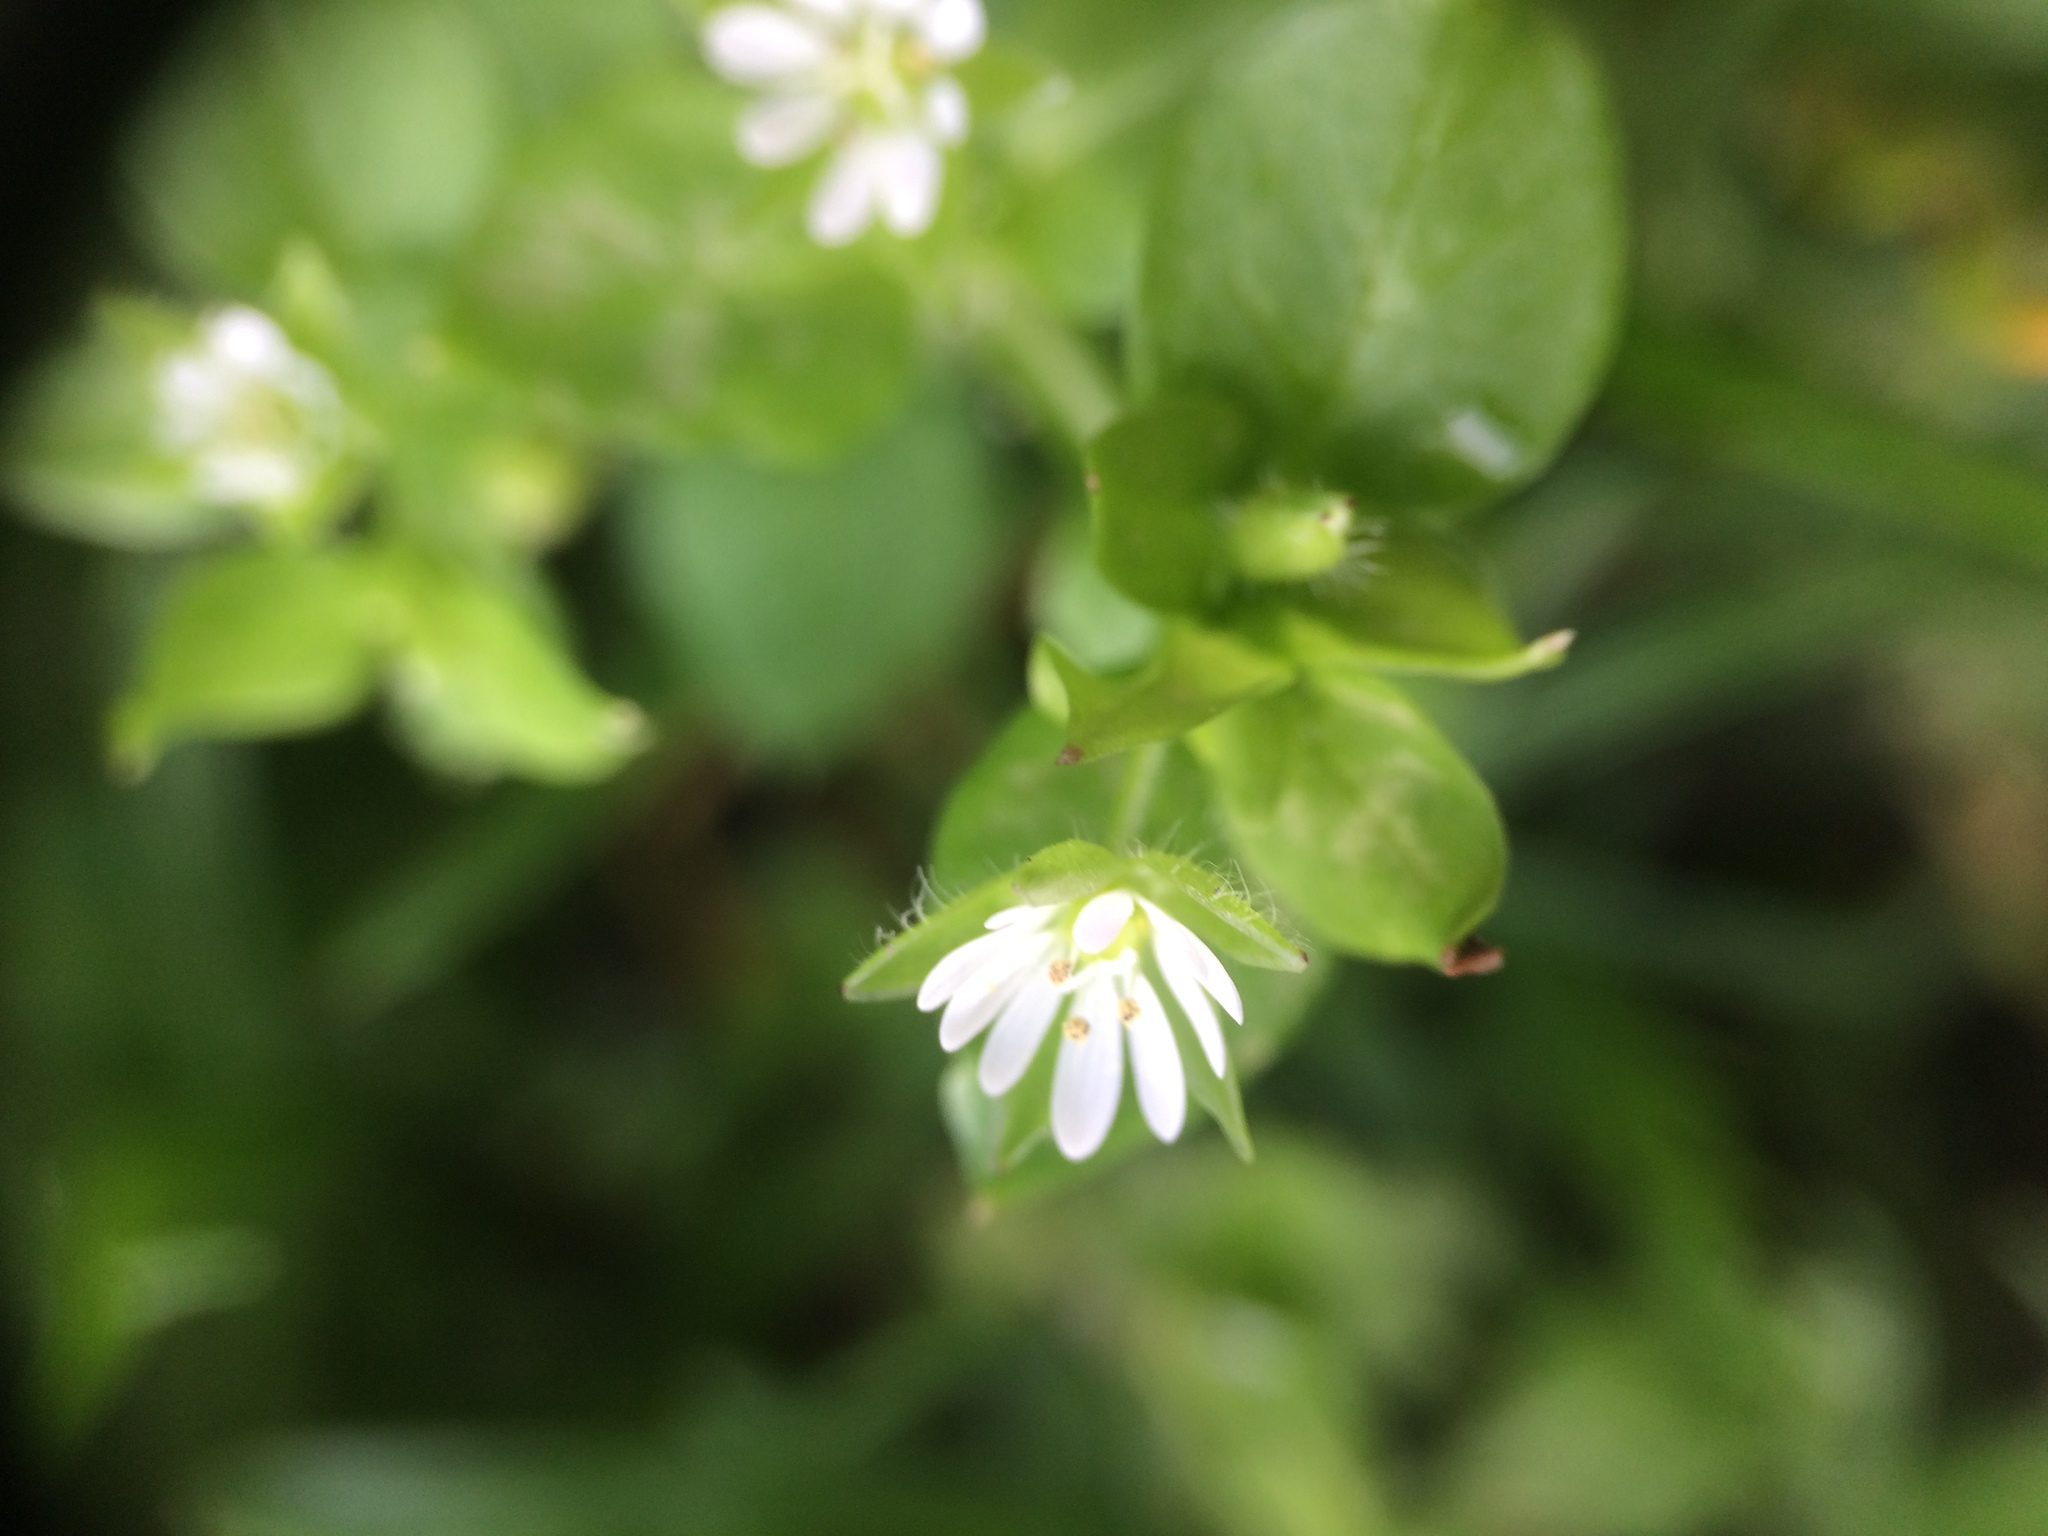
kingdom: Plantae
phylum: Tracheophyta
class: Magnoliopsida
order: Caryophyllales
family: Caryophyllaceae
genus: Stellaria
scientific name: Stellaria media
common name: Common chickweed
